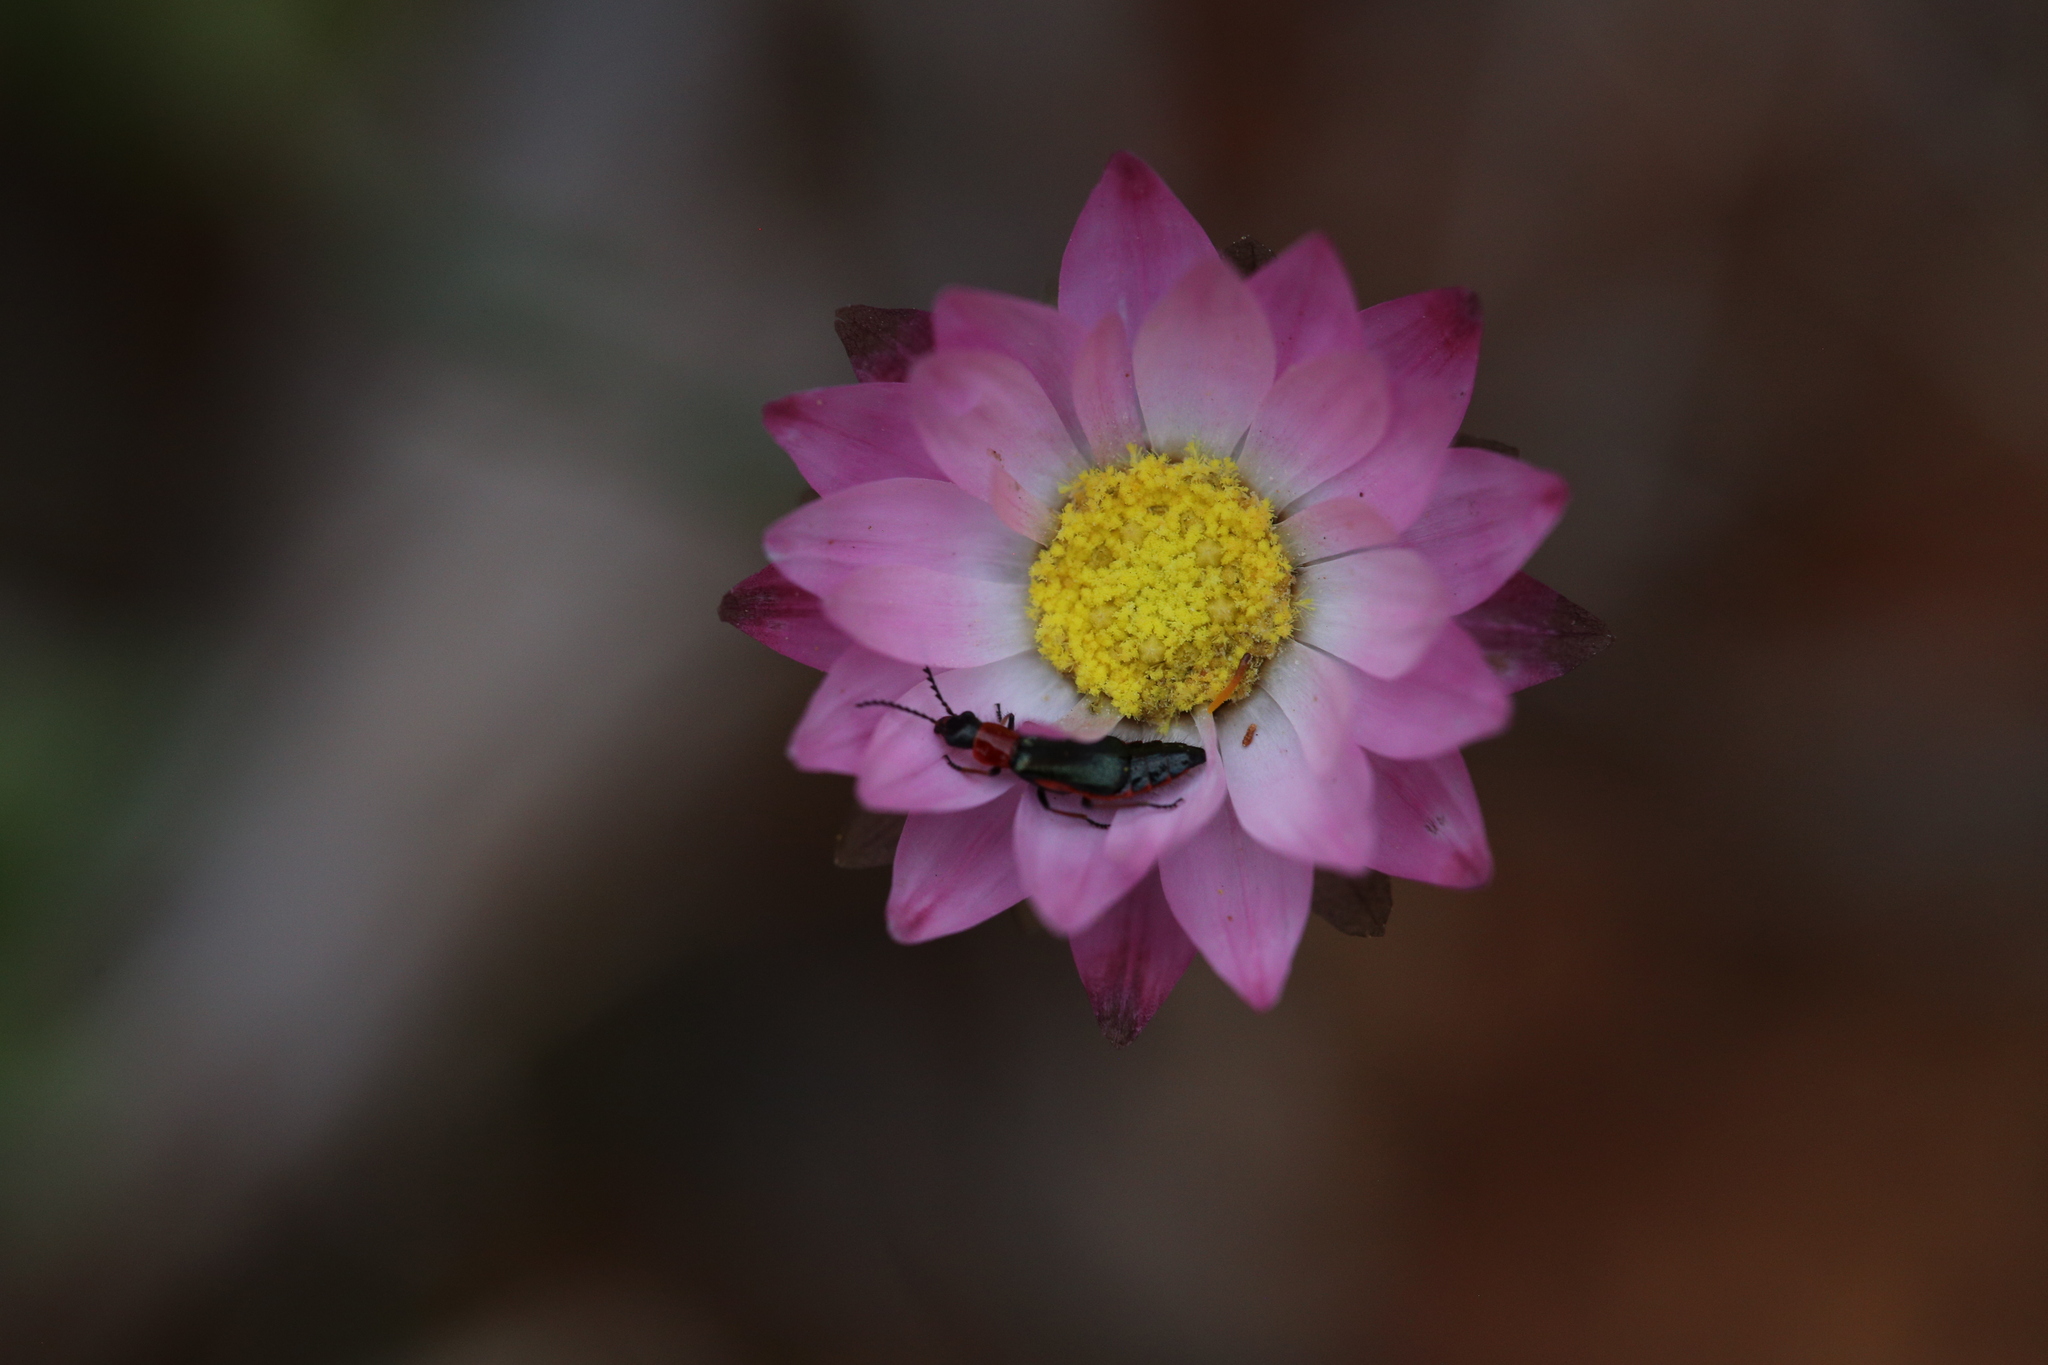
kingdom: Plantae
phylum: Tracheophyta
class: Magnoliopsida
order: Asterales
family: Asteraceae
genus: Rhodanthe
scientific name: Rhodanthe chlorocephala
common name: Rosy sunray
